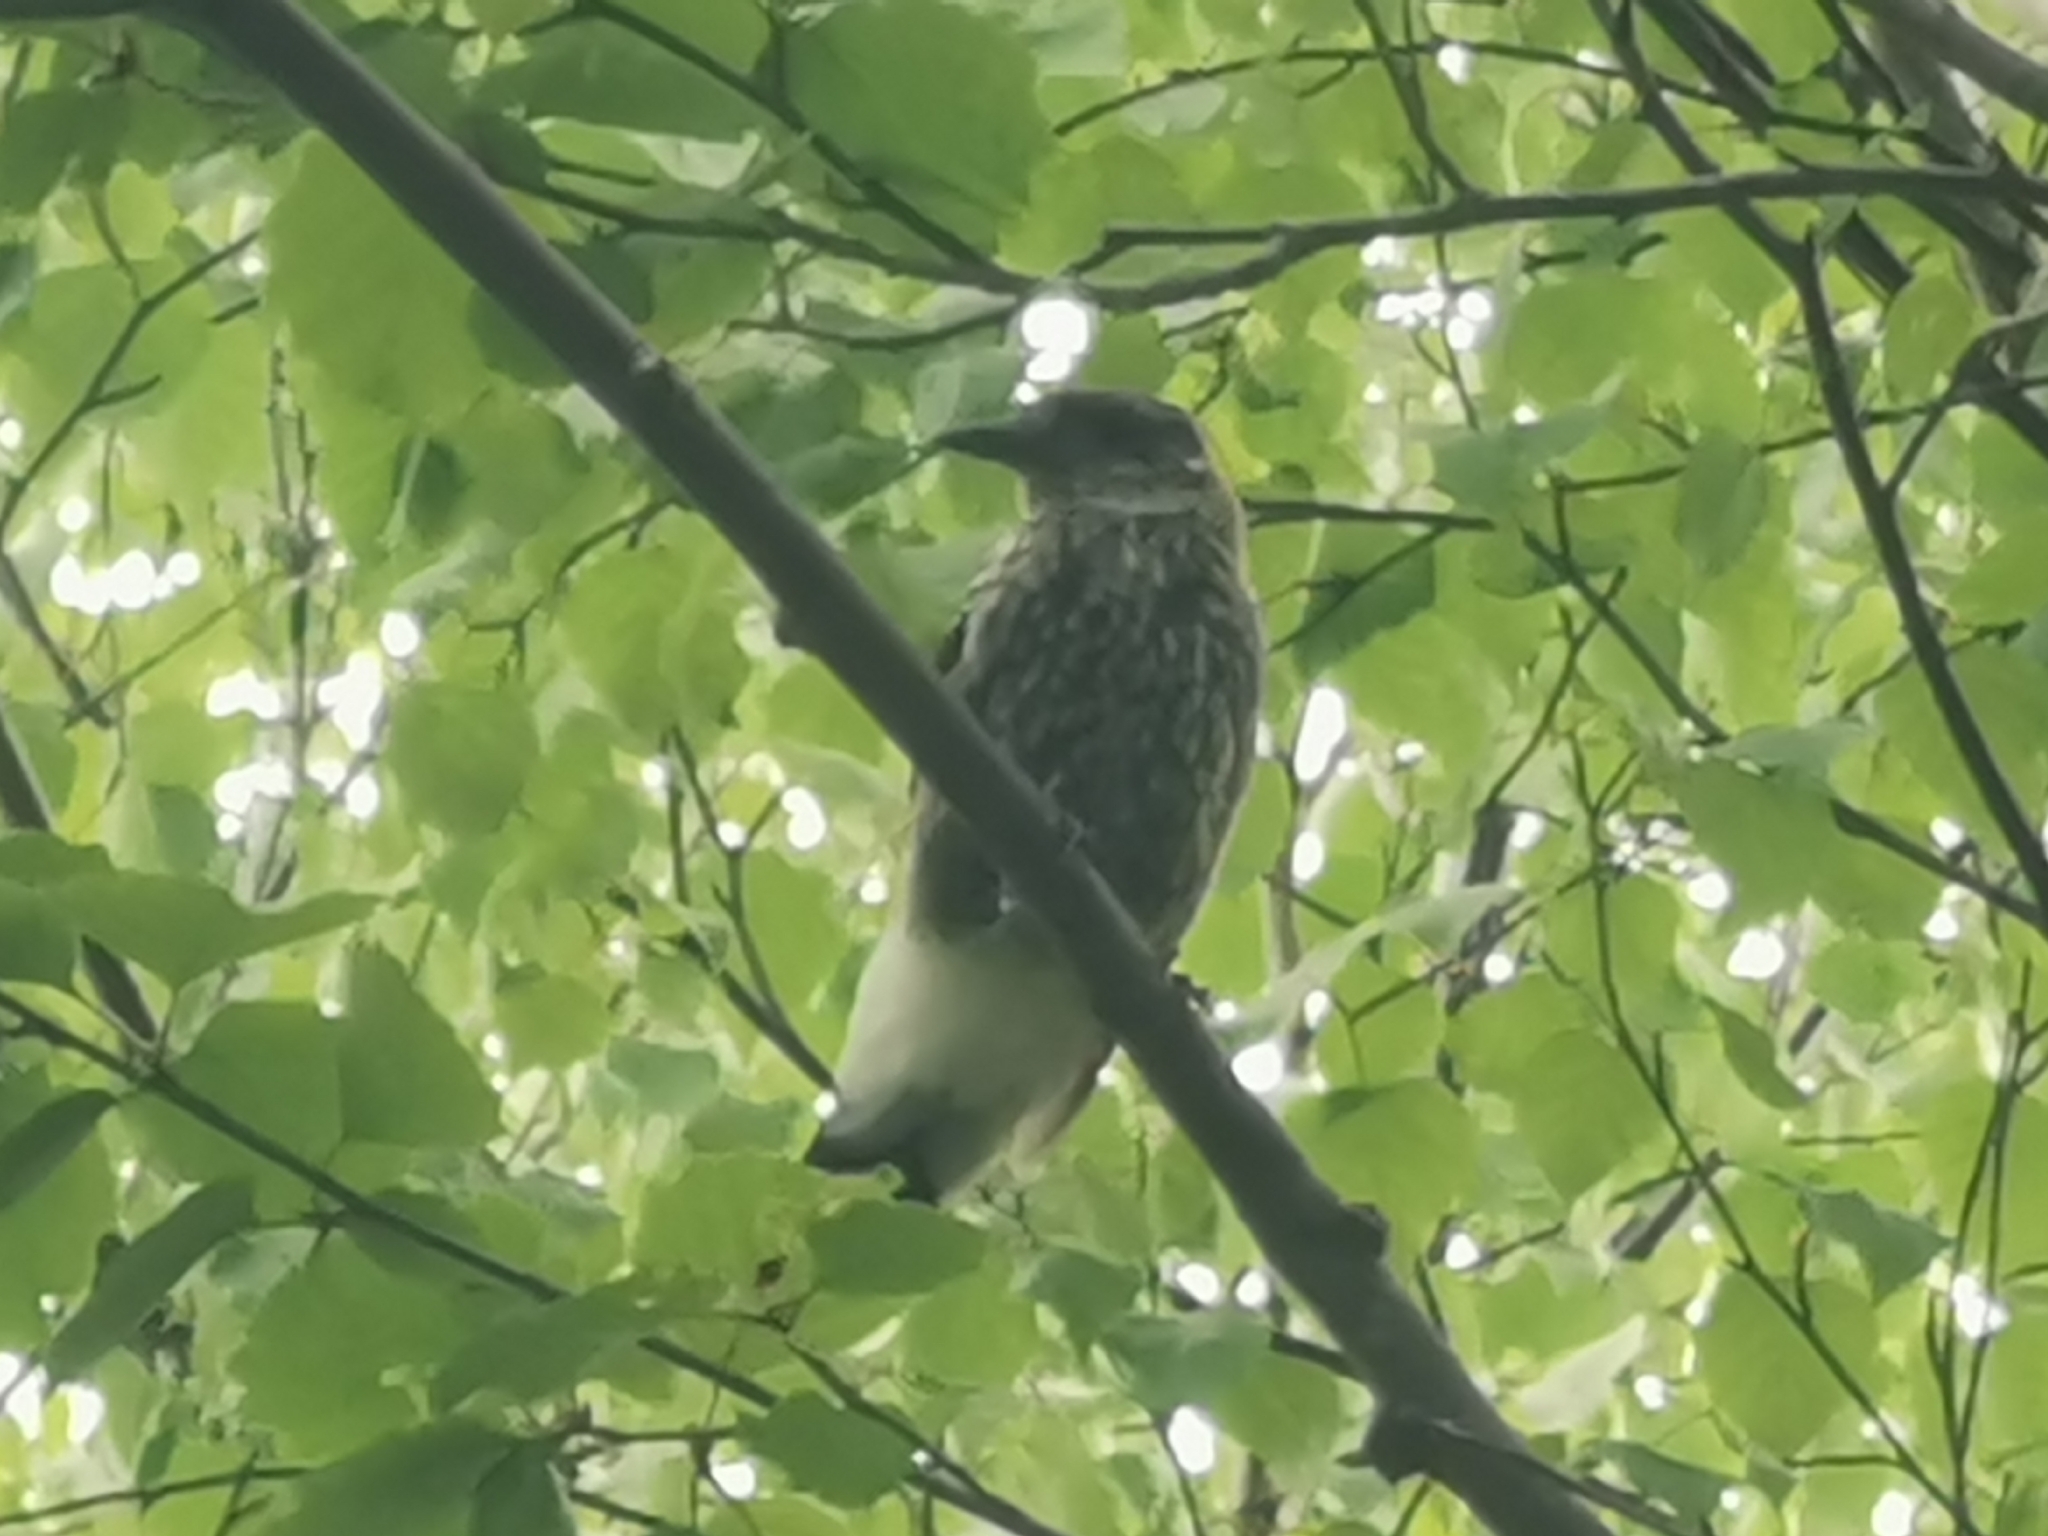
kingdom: Animalia
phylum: Chordata
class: Aves
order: Passeriformes
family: Corvidae
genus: Nucifraga
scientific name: Nucifraga caryocatactes
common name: Spotted nutcracker
